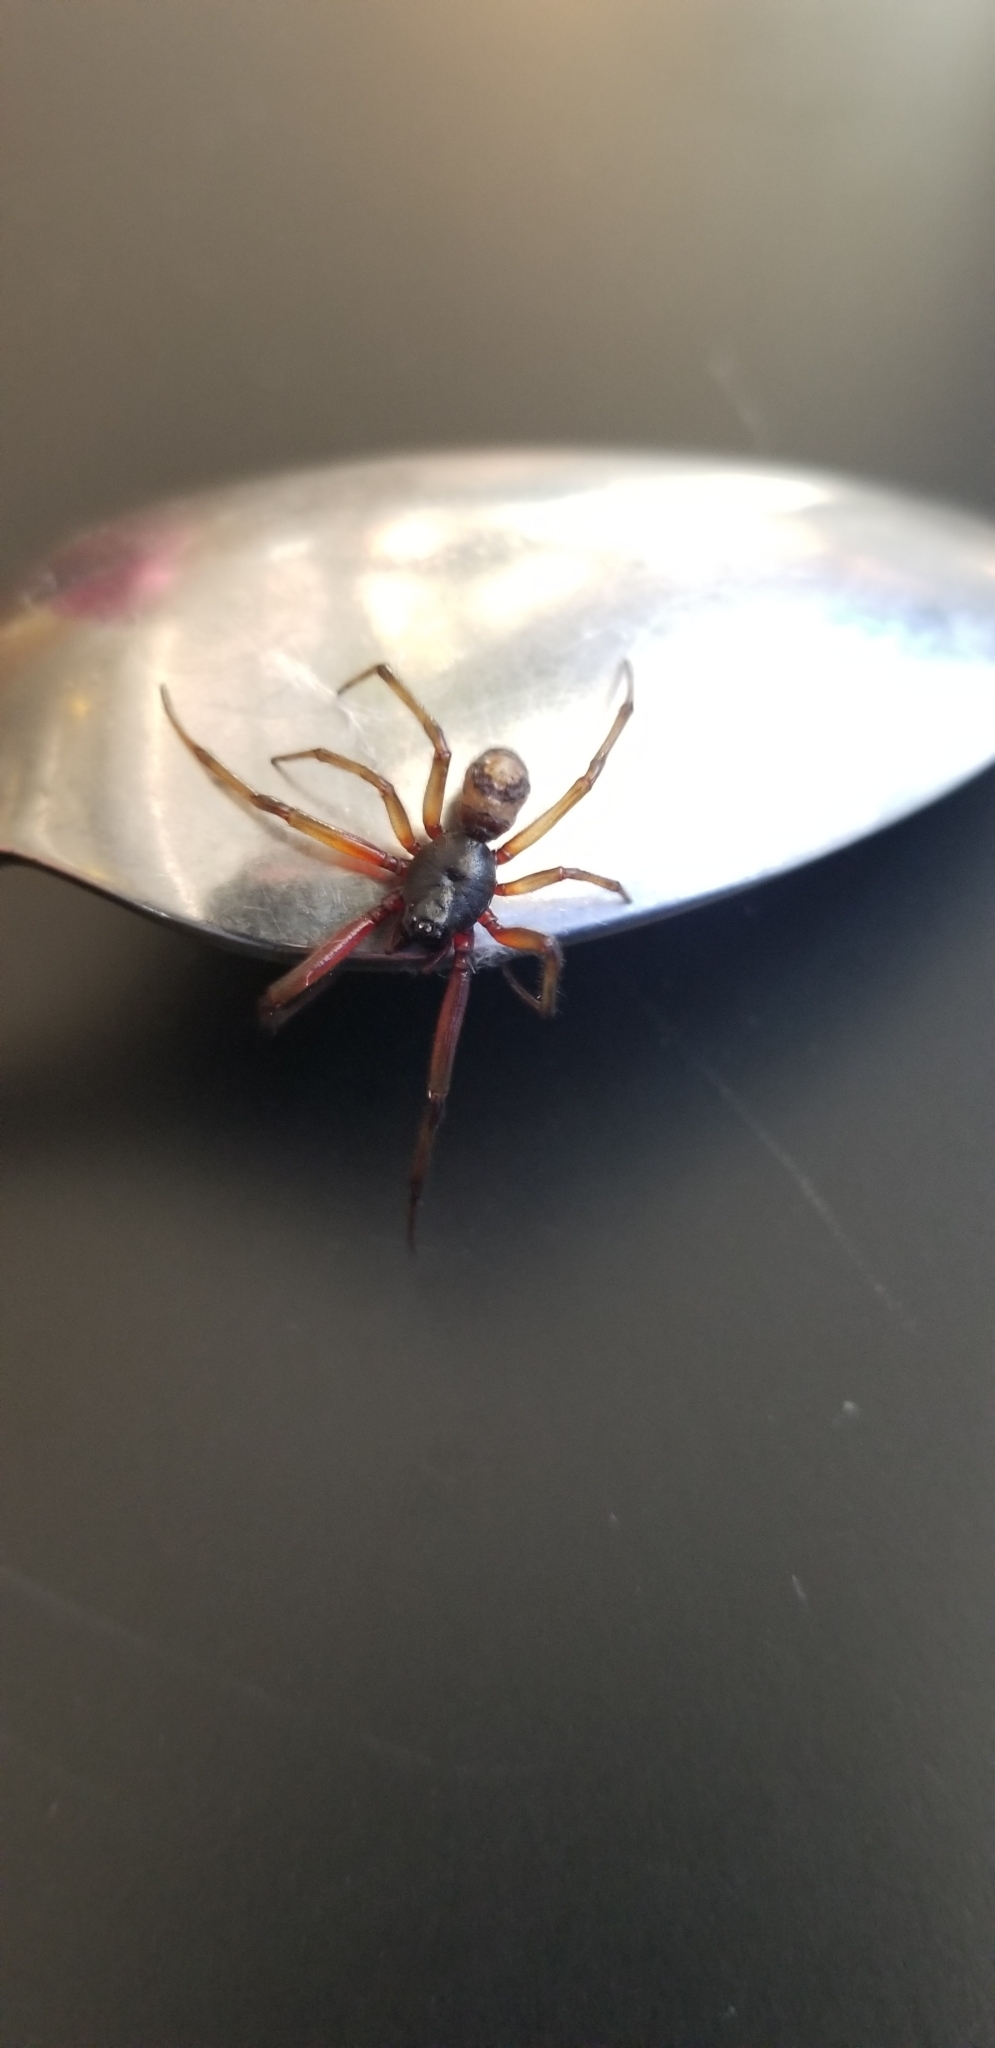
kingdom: Animalia
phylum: Arthropoda
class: Arachnida
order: Araneae
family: Theridiidae
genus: Steatoda
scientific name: Steatoda nobilis
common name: Cobweb weaver
